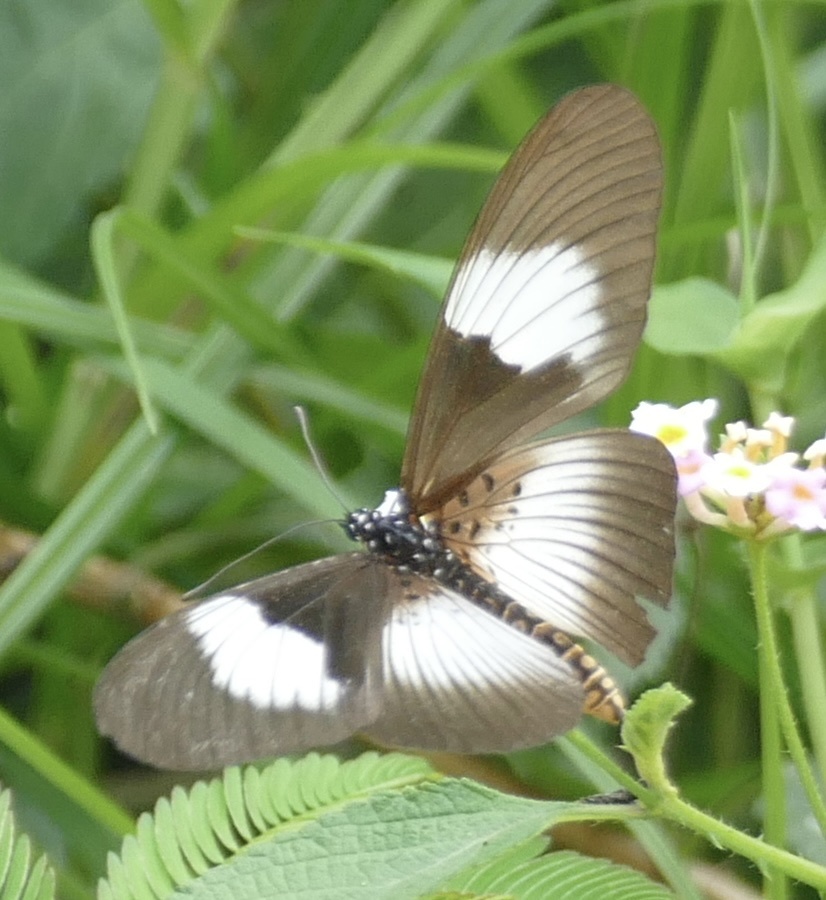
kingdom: Animalia
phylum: Arthropoda
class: Insecta
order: Lepidoptera
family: Nymphalidae
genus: Acraea
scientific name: Acraea
